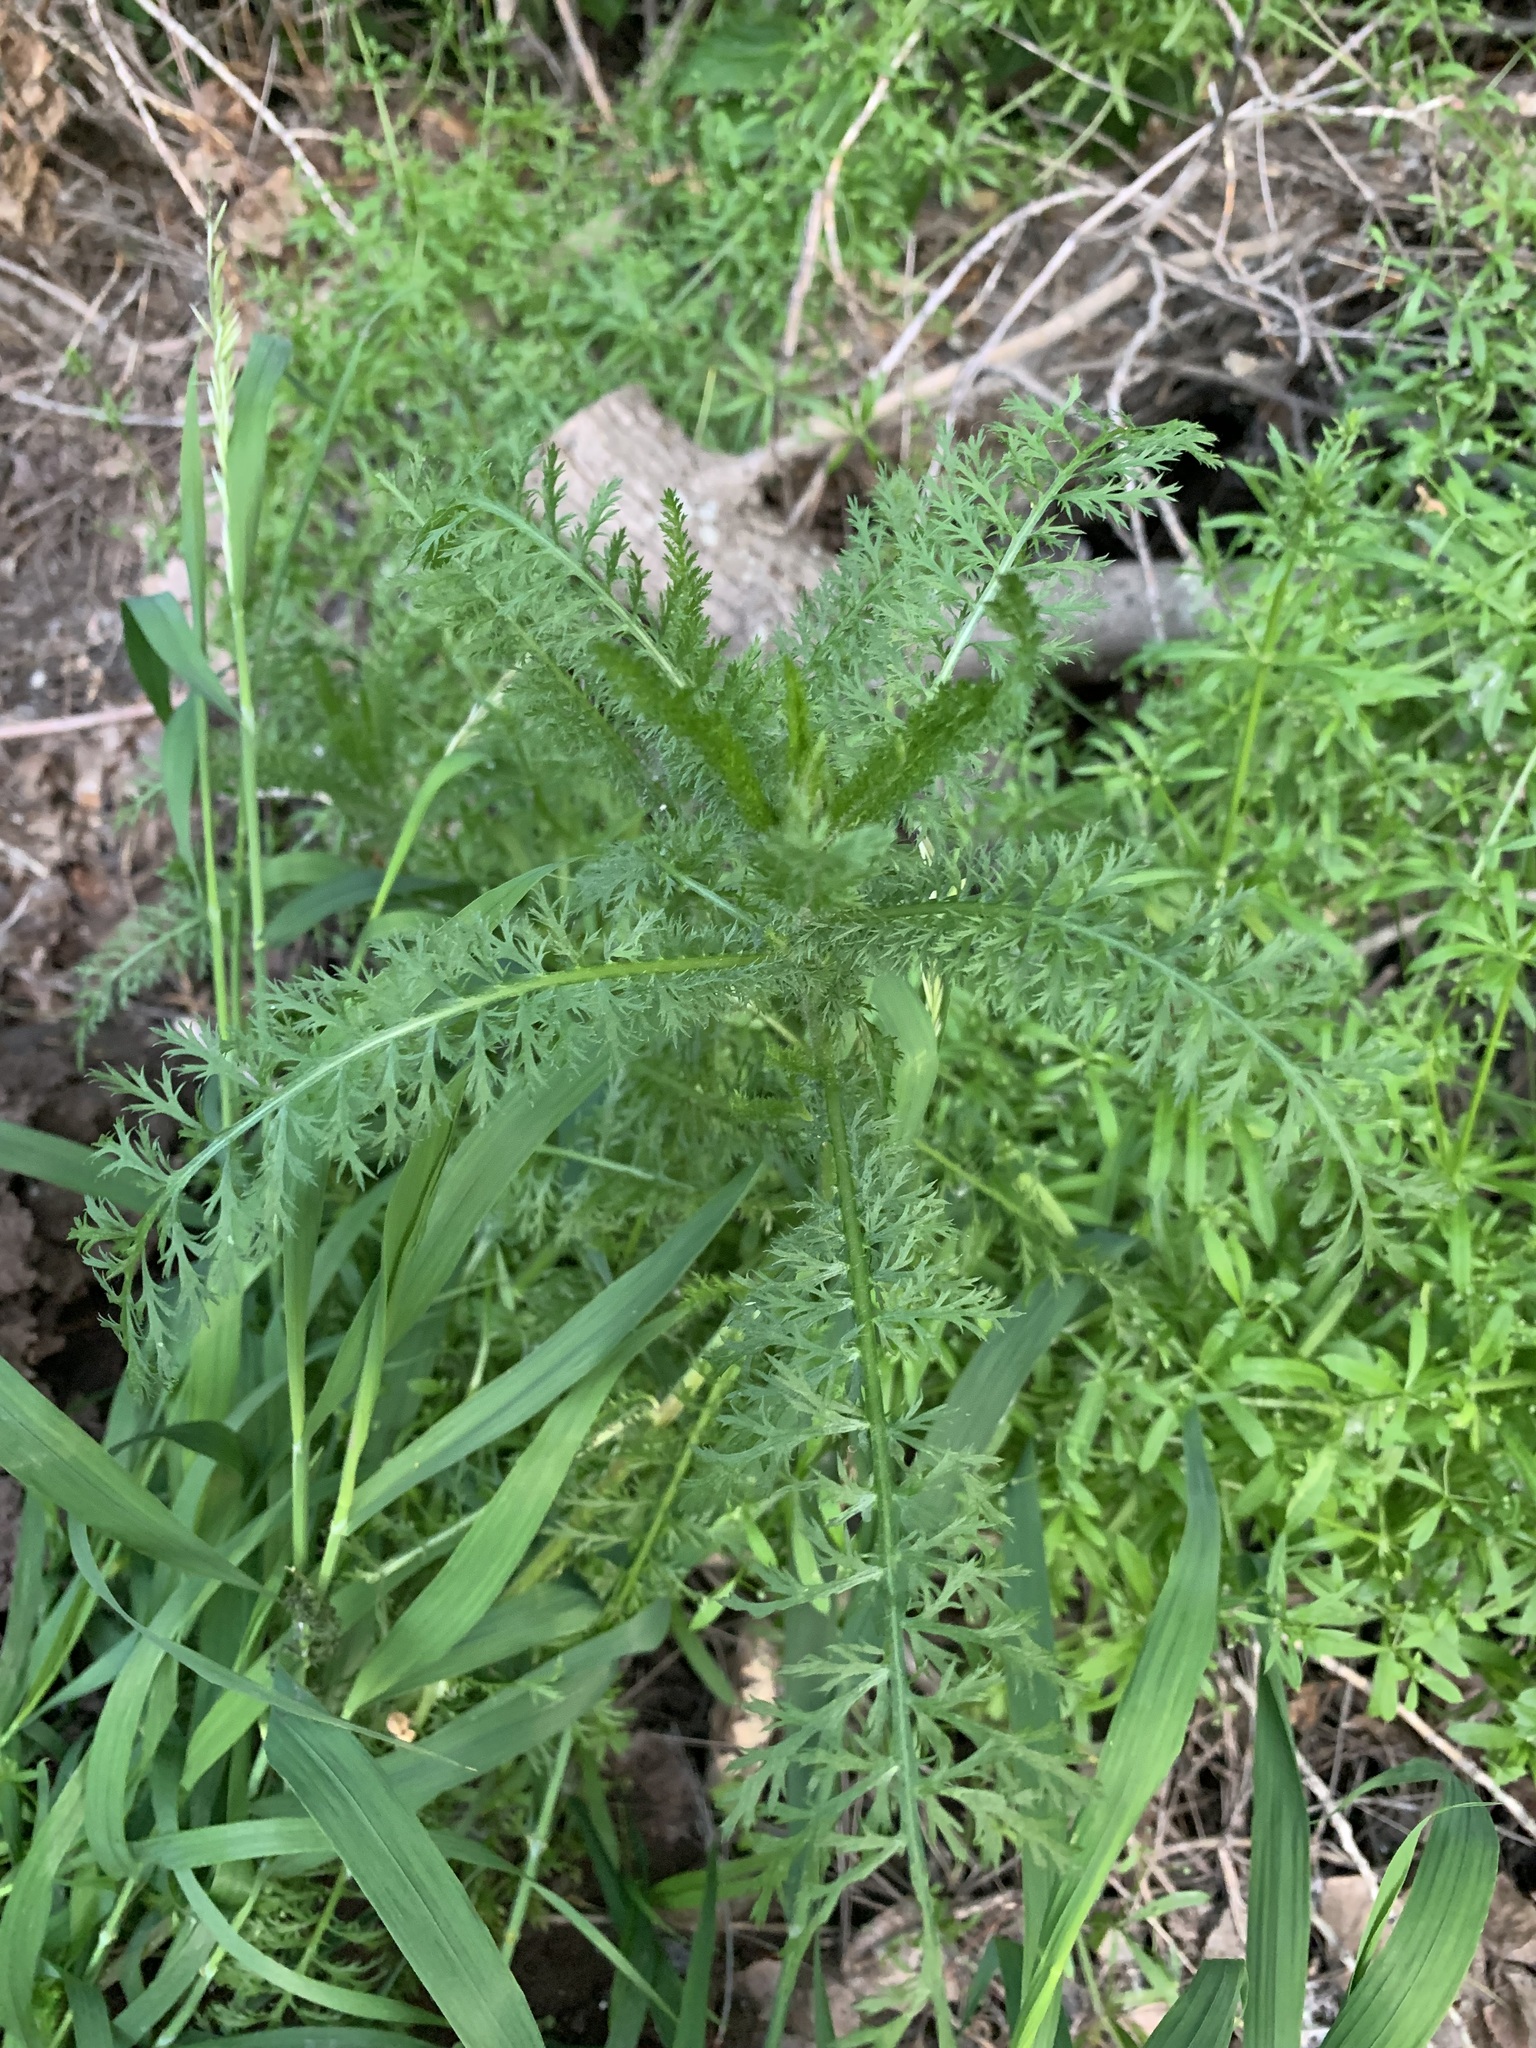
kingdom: Plantae
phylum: Tracheophyta
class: Magnoliopsida
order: Asterales
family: Asteraceae
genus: Achillea
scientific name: Achillea millefolium
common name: Yarrow
